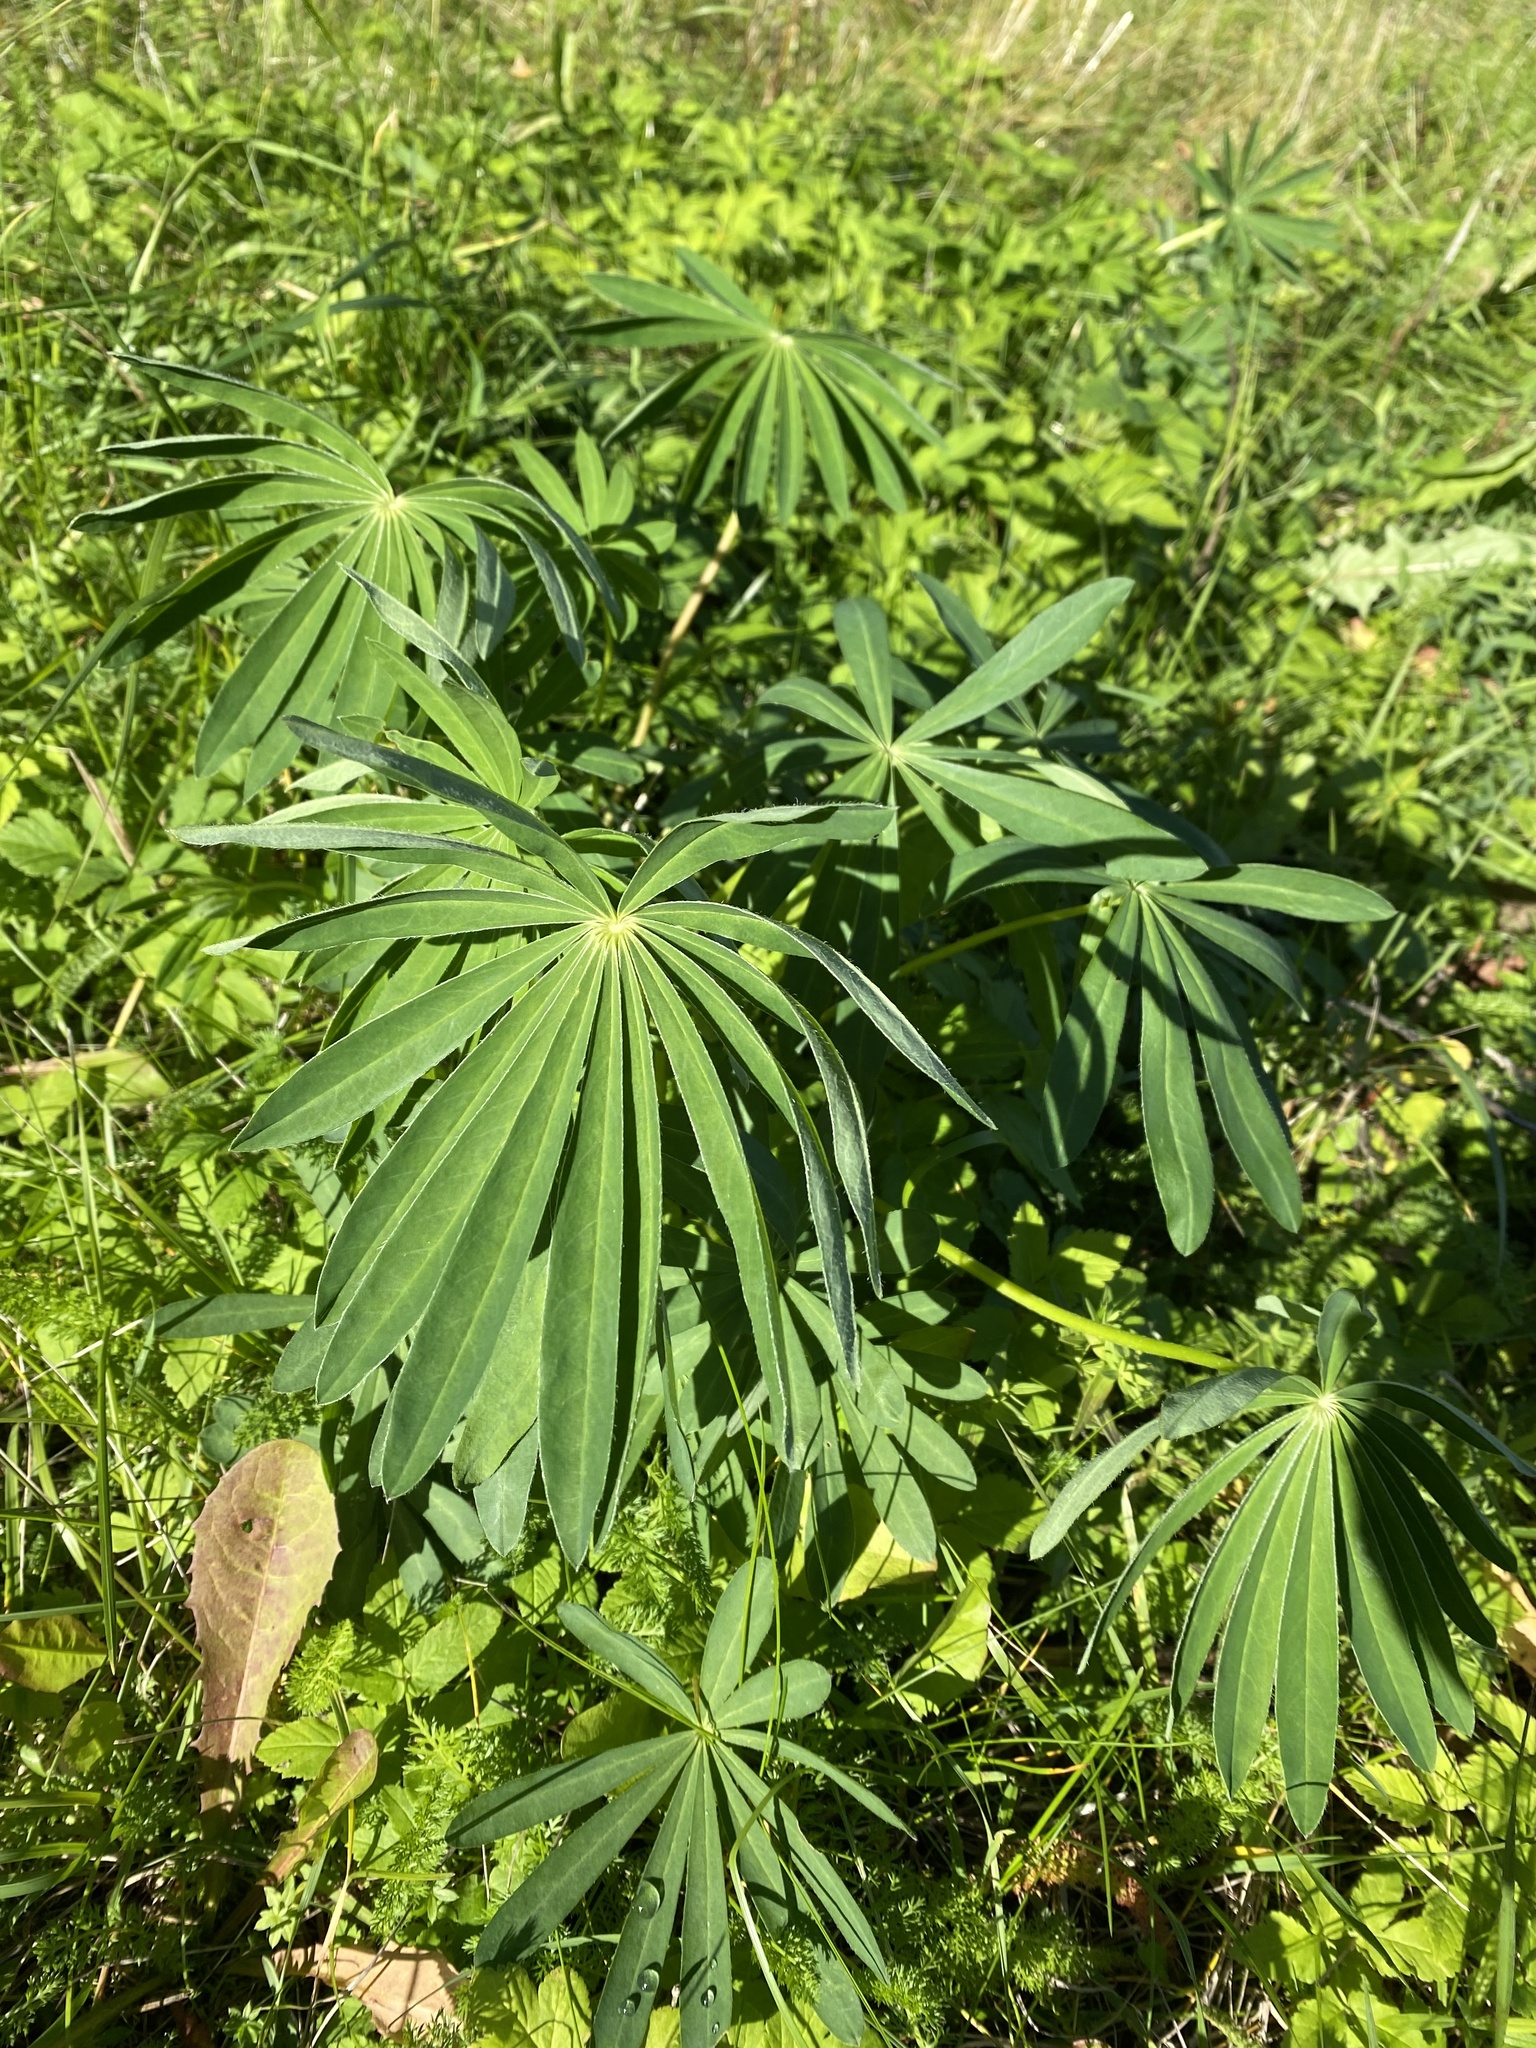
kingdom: Plantae
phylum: Tracheophyta
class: Magnoliopsida
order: Fabales
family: Fabaceae
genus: Lupinus
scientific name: Lupinus polyphyllus
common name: Garden lupin
